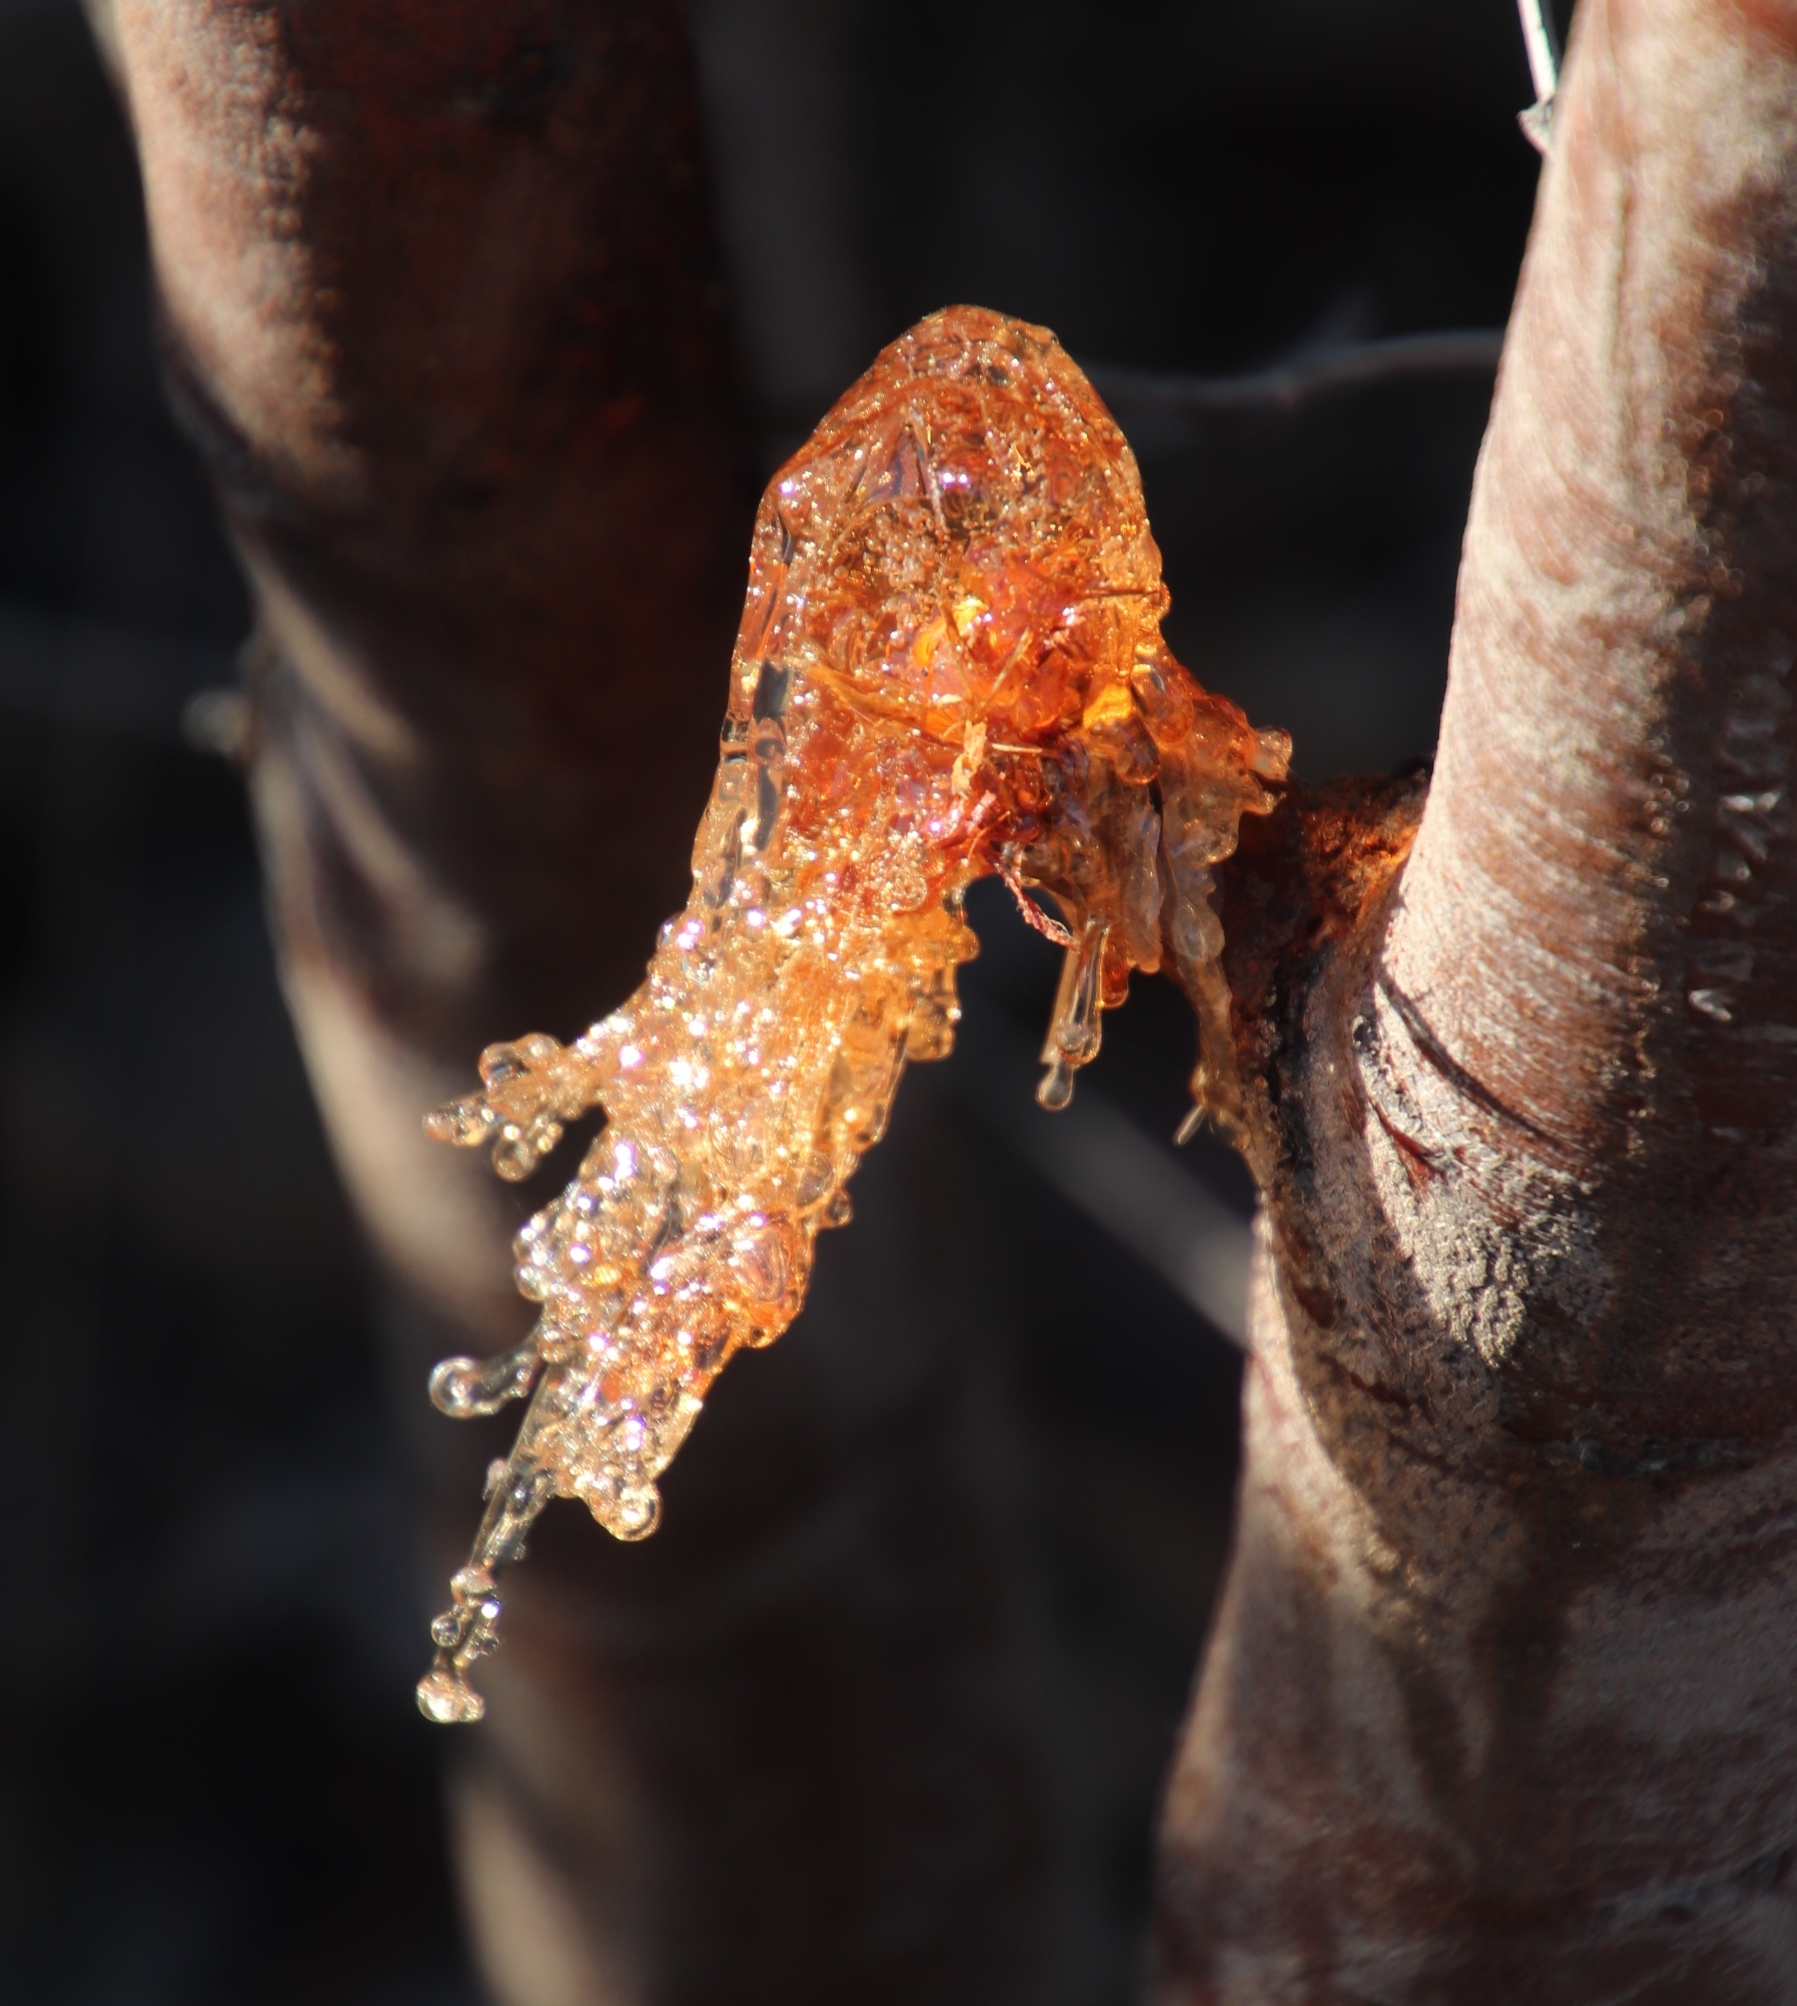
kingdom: Plantae
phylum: Tracheophyta
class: Magnoliopsida
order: Fabales
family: Fabaceae
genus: Acacia
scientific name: Acacia saligna
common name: Orange wattle
